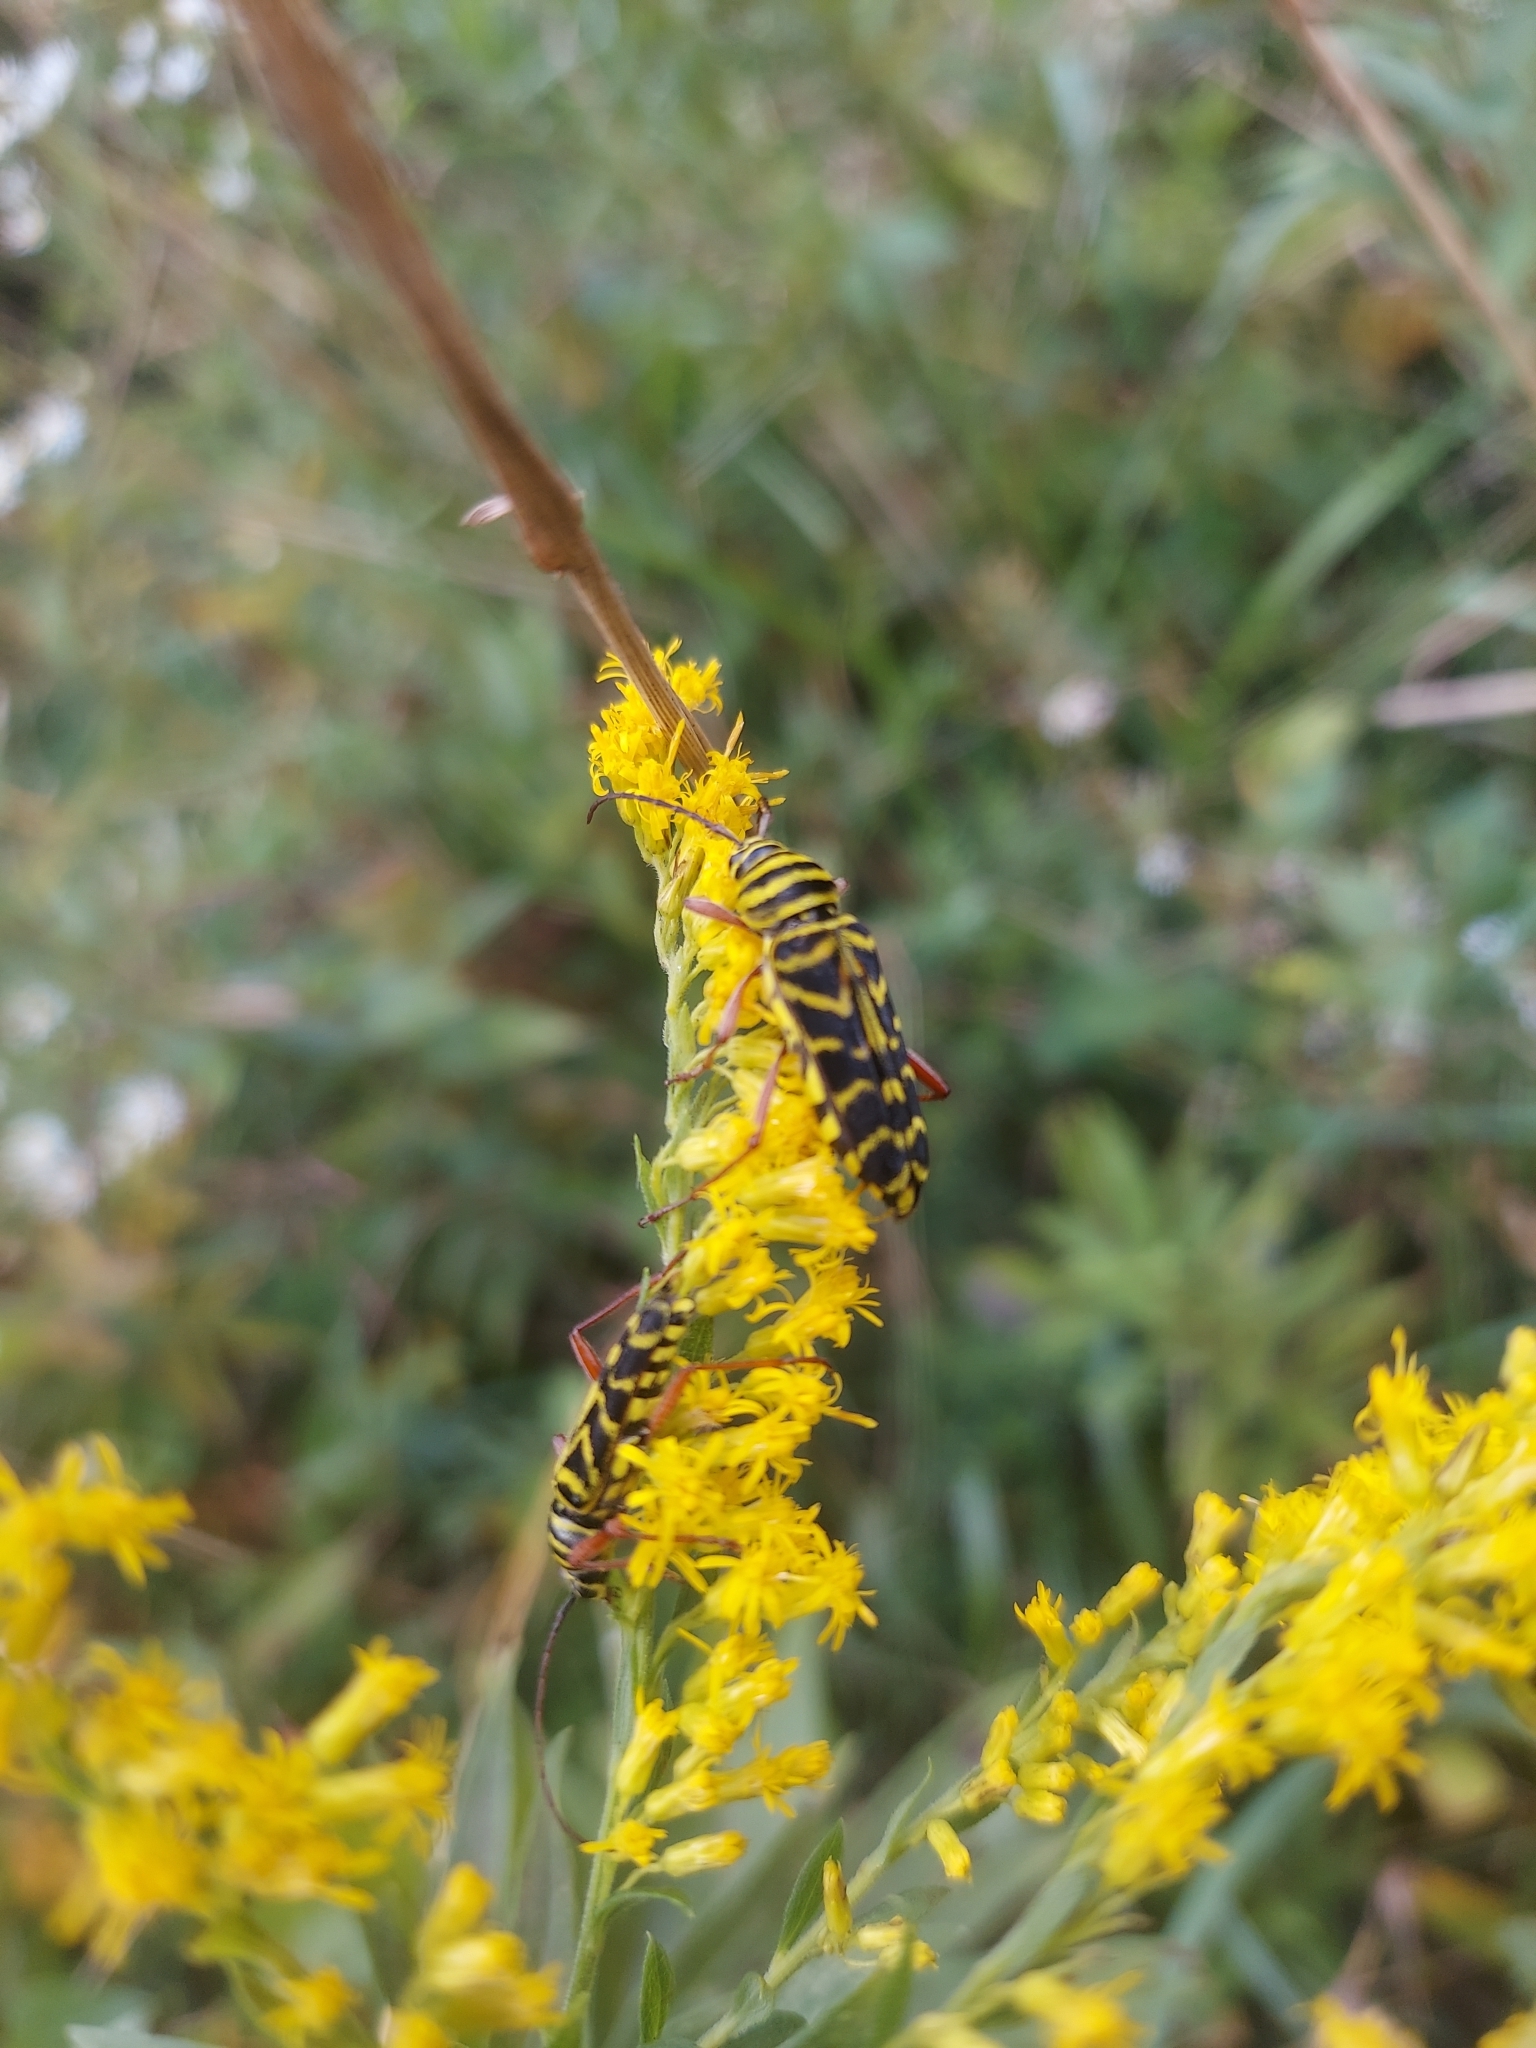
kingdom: Animalia
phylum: Arthropoda
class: Insecta
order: Coleoptera
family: Cerambycidae
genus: Megacyllene
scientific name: Megacyllene robiniae
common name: Locust borer
